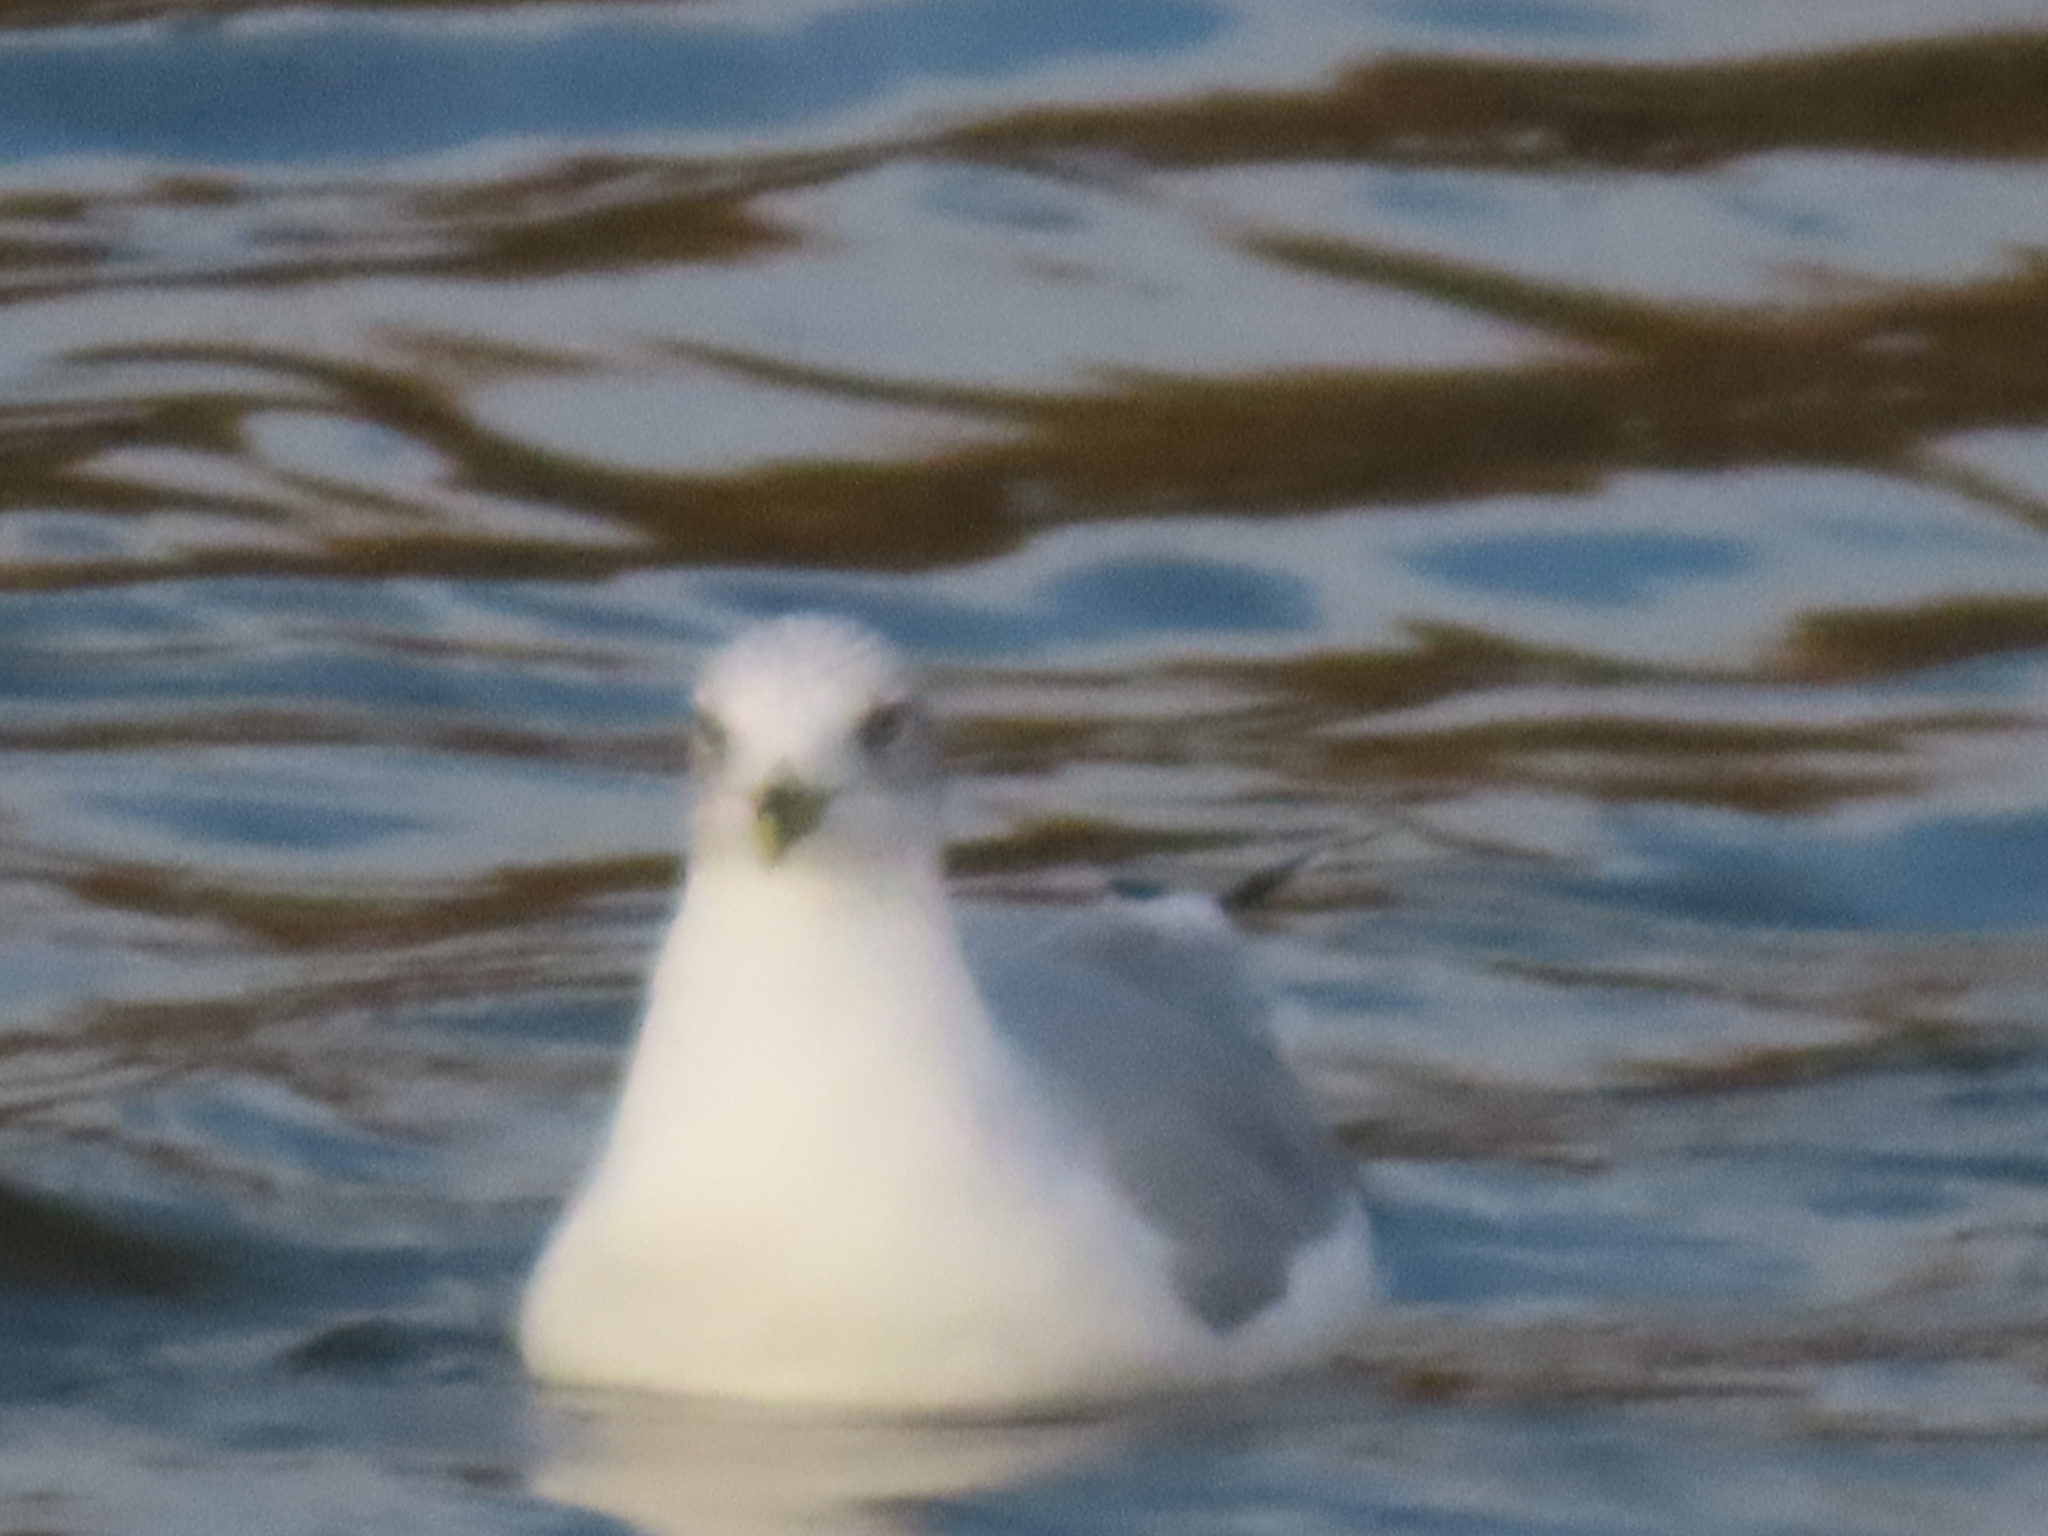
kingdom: Animalia
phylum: Chordata
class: Aves
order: Charadriiformes
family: Laridae
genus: Larus
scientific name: Larus delawarensis
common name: Ring-billed gull
